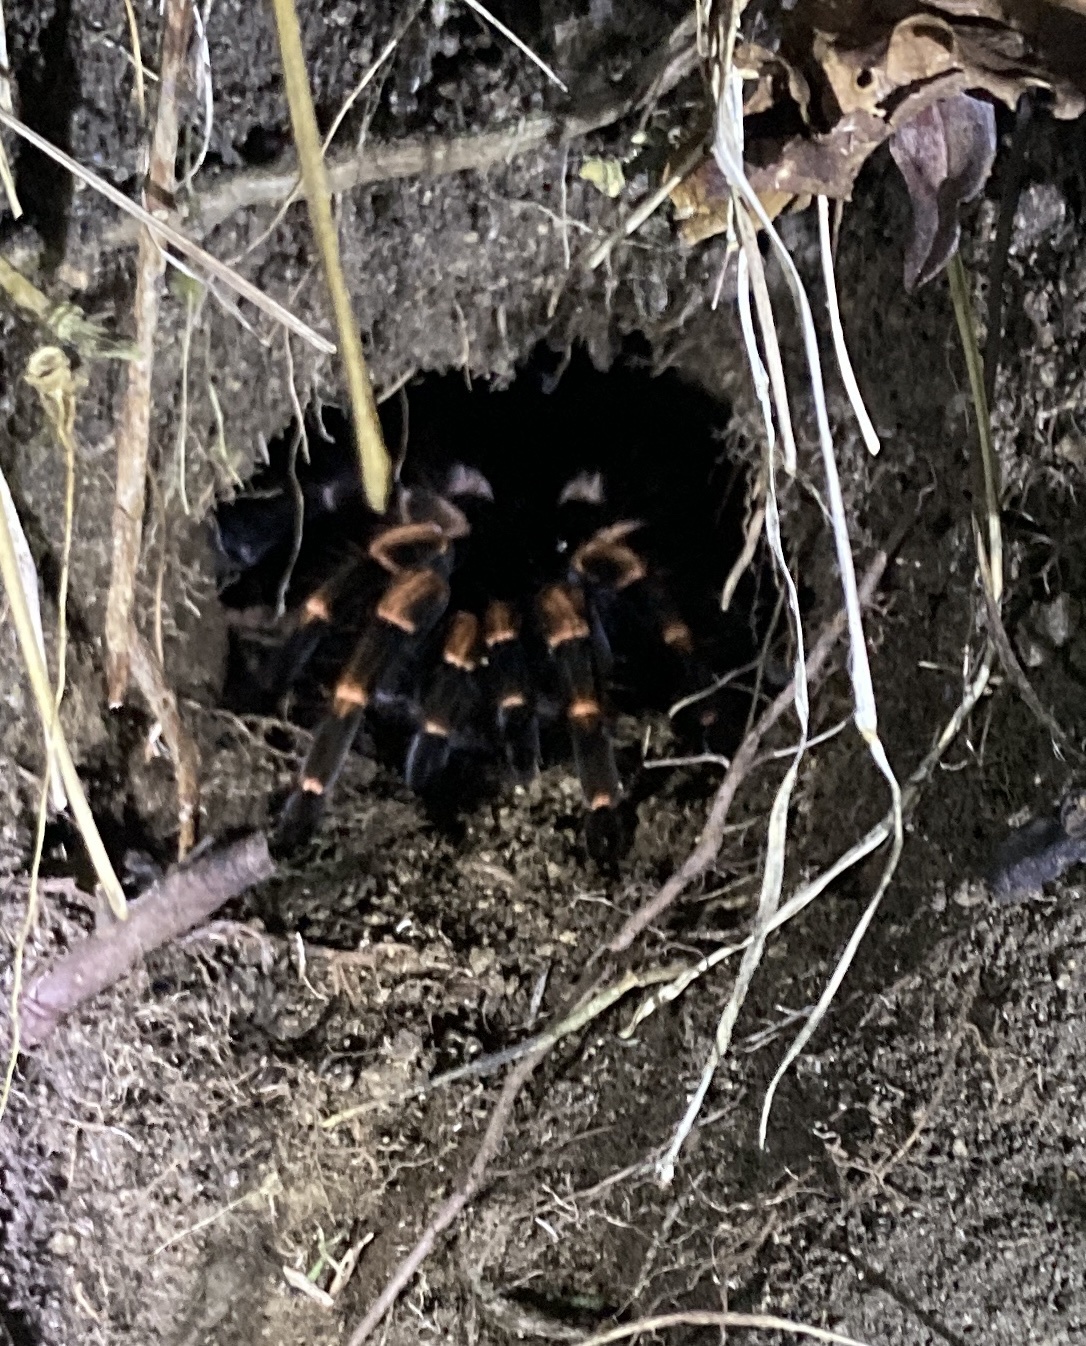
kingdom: Animalia
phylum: Arthropoda
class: Arachnida
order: Araneae
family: Theraphosidae
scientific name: Theraphosidae
